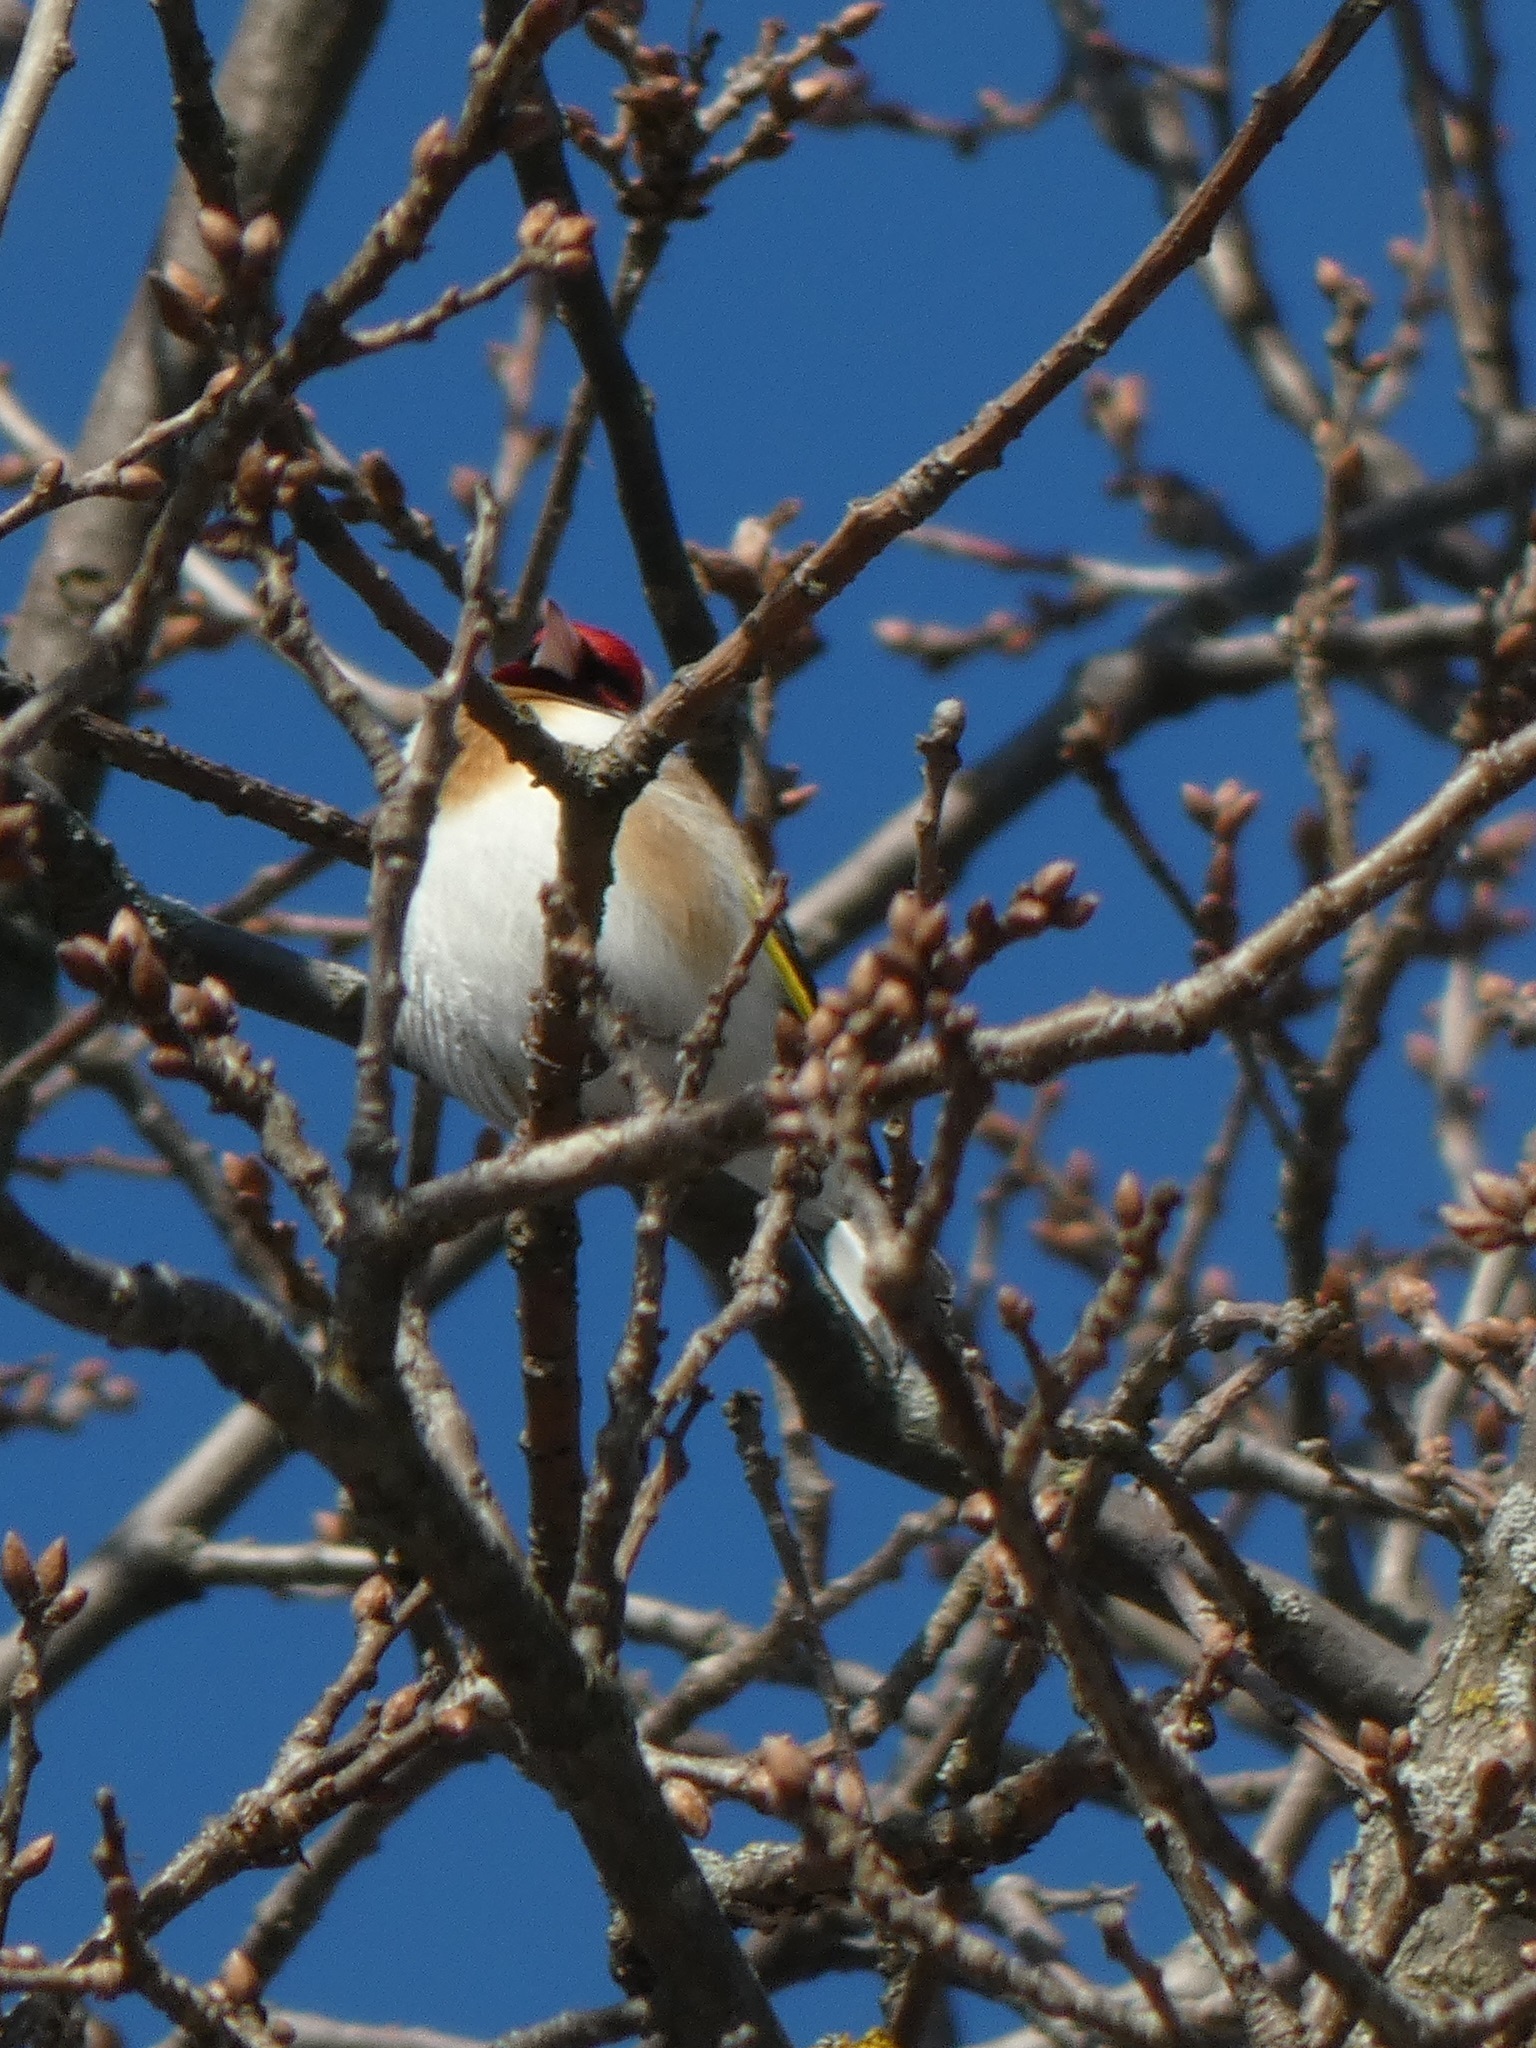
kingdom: Animalia
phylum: Chordata
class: Aves
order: Passeriformes
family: Fringillidae
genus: Carduelis
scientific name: Carduelis carduelis
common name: European goldfinch
